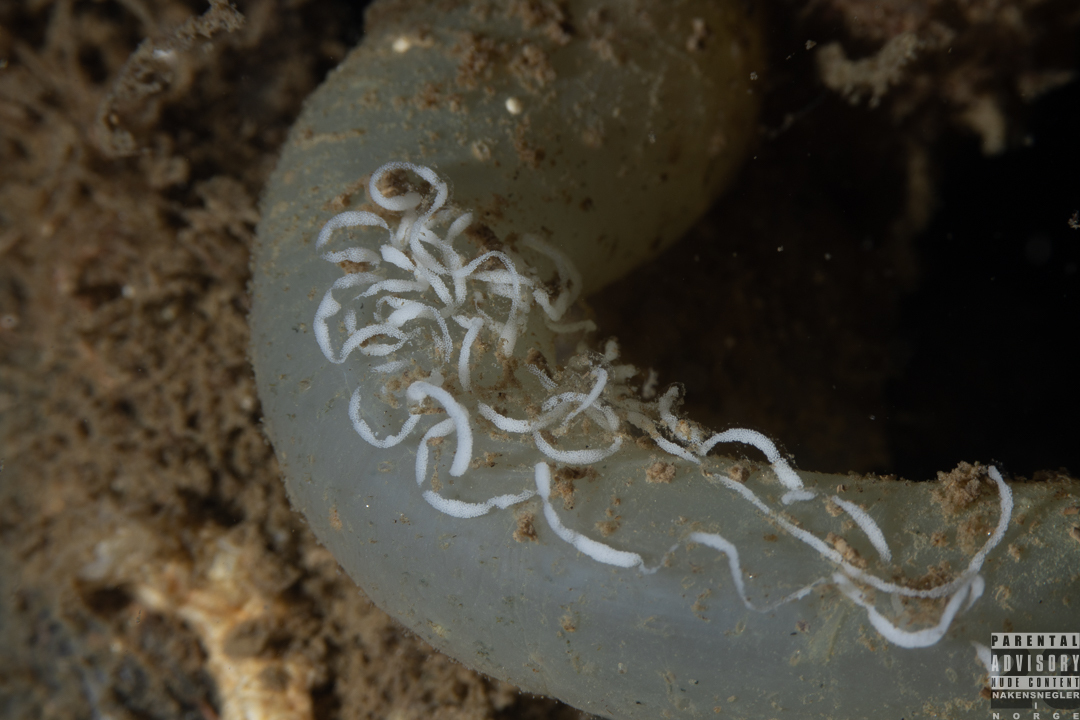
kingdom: Animalia
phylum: Mollusca
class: Gastropoda
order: Nudibranchia
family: Facelinidae
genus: Facelina
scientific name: Facelina bostoniensis
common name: Boston facelina
